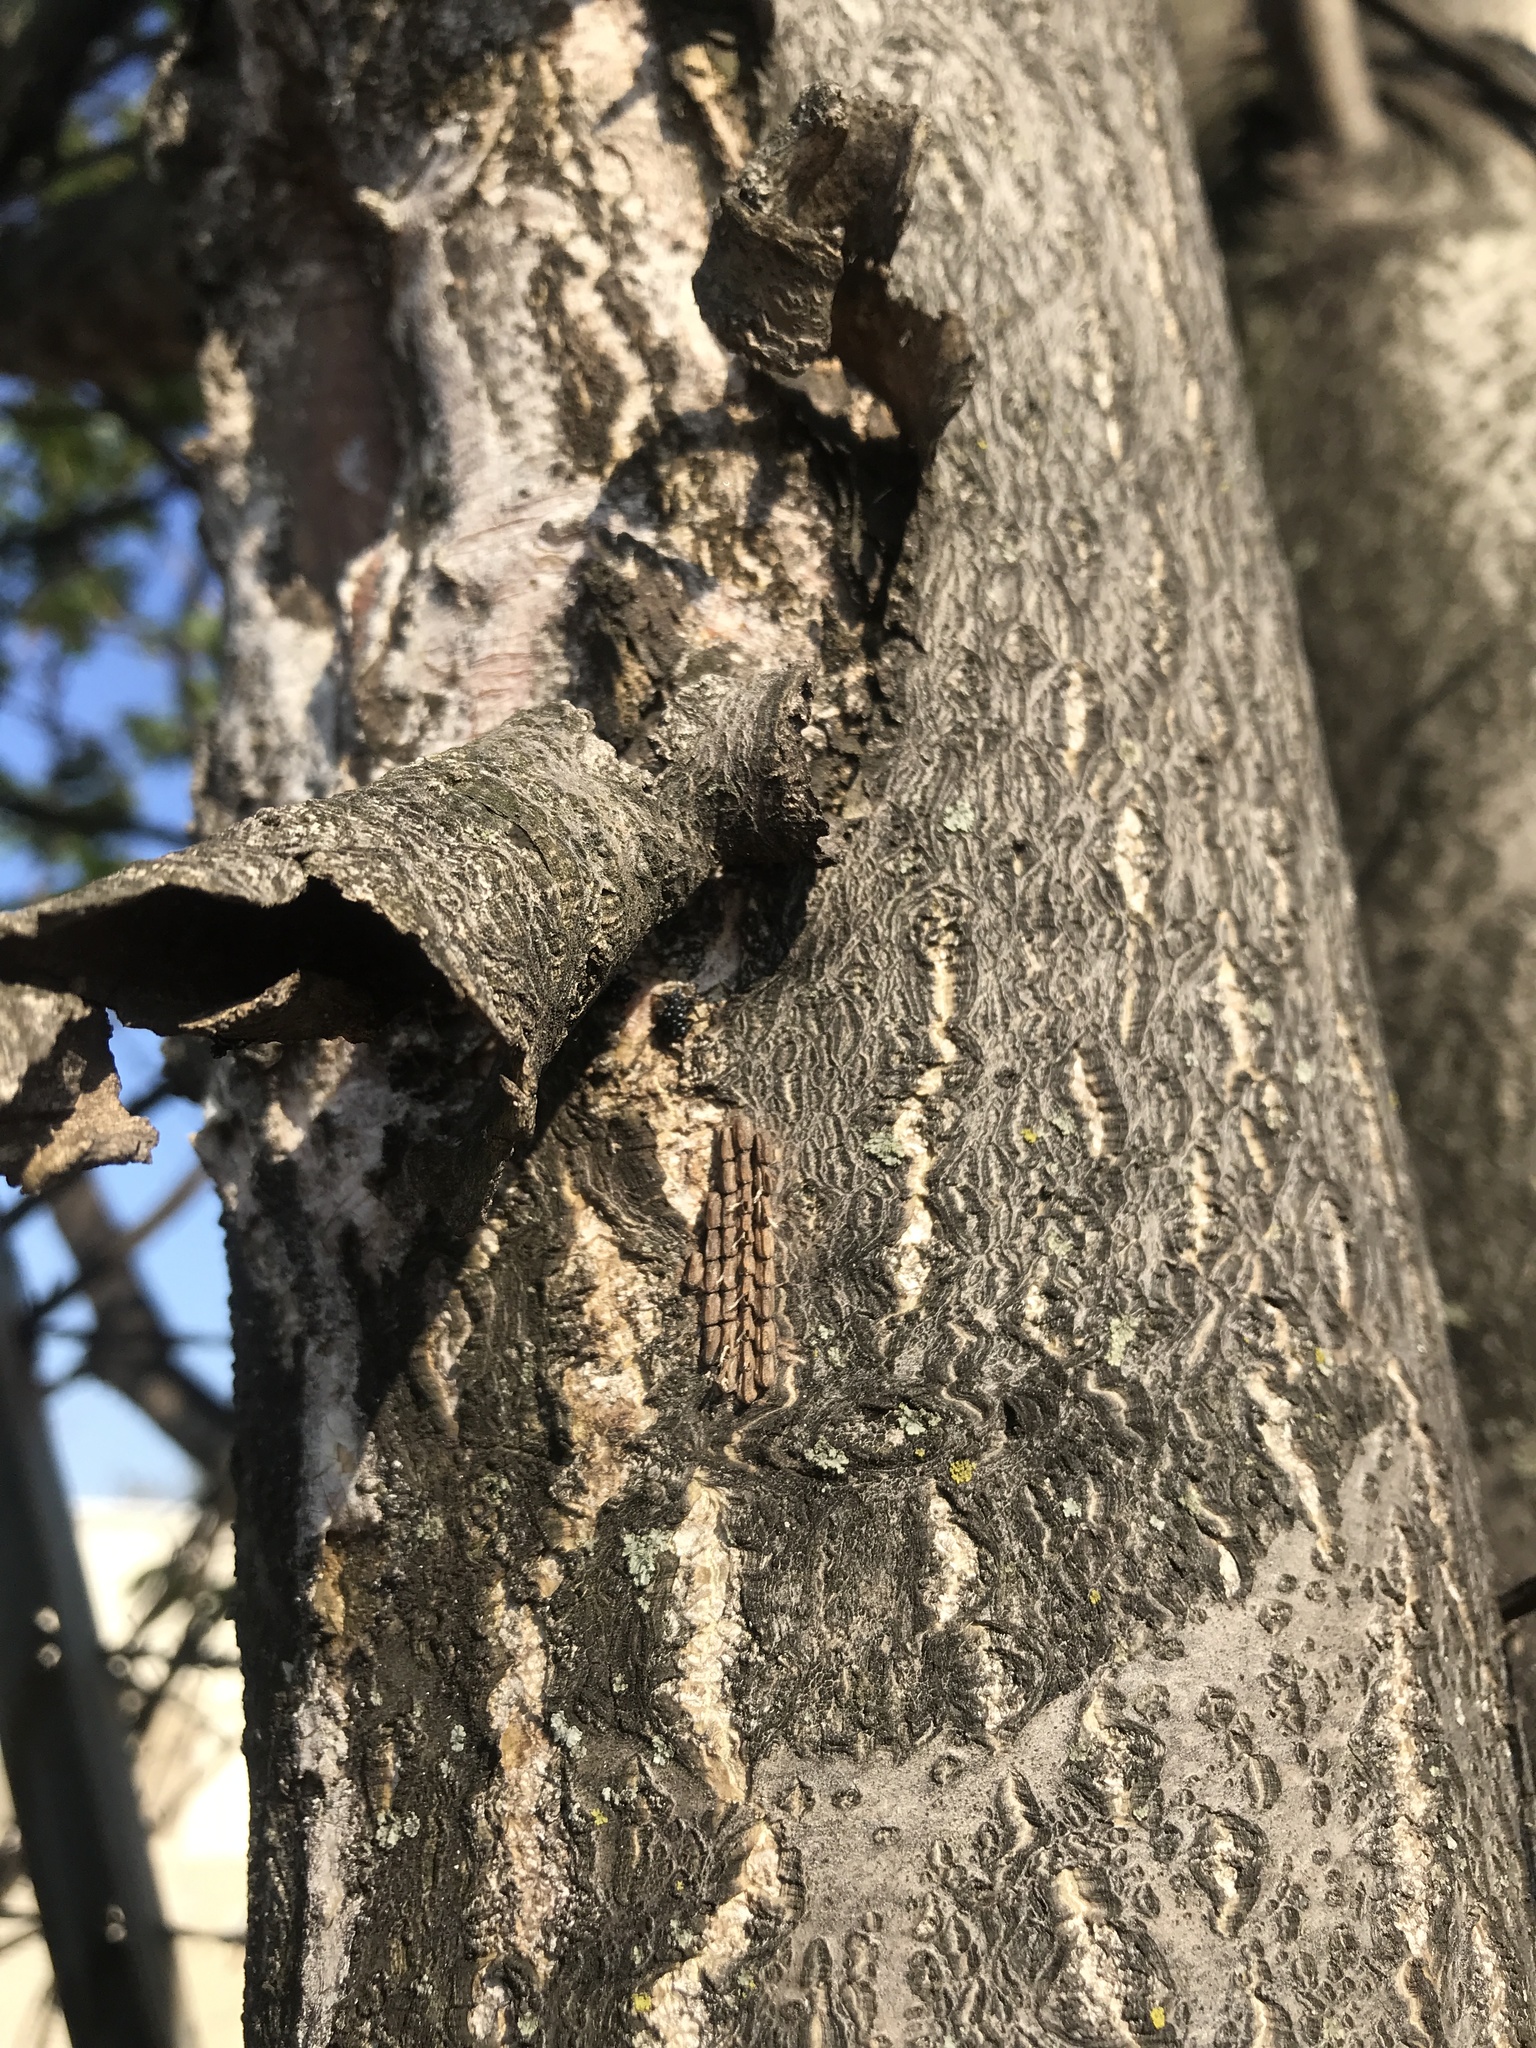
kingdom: Animalia
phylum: Arthropoda
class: Insecta
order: Hemiptera
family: Fulgoridae
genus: Lycorma
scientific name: Lycorma delicatula
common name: Spotted lanternfly
